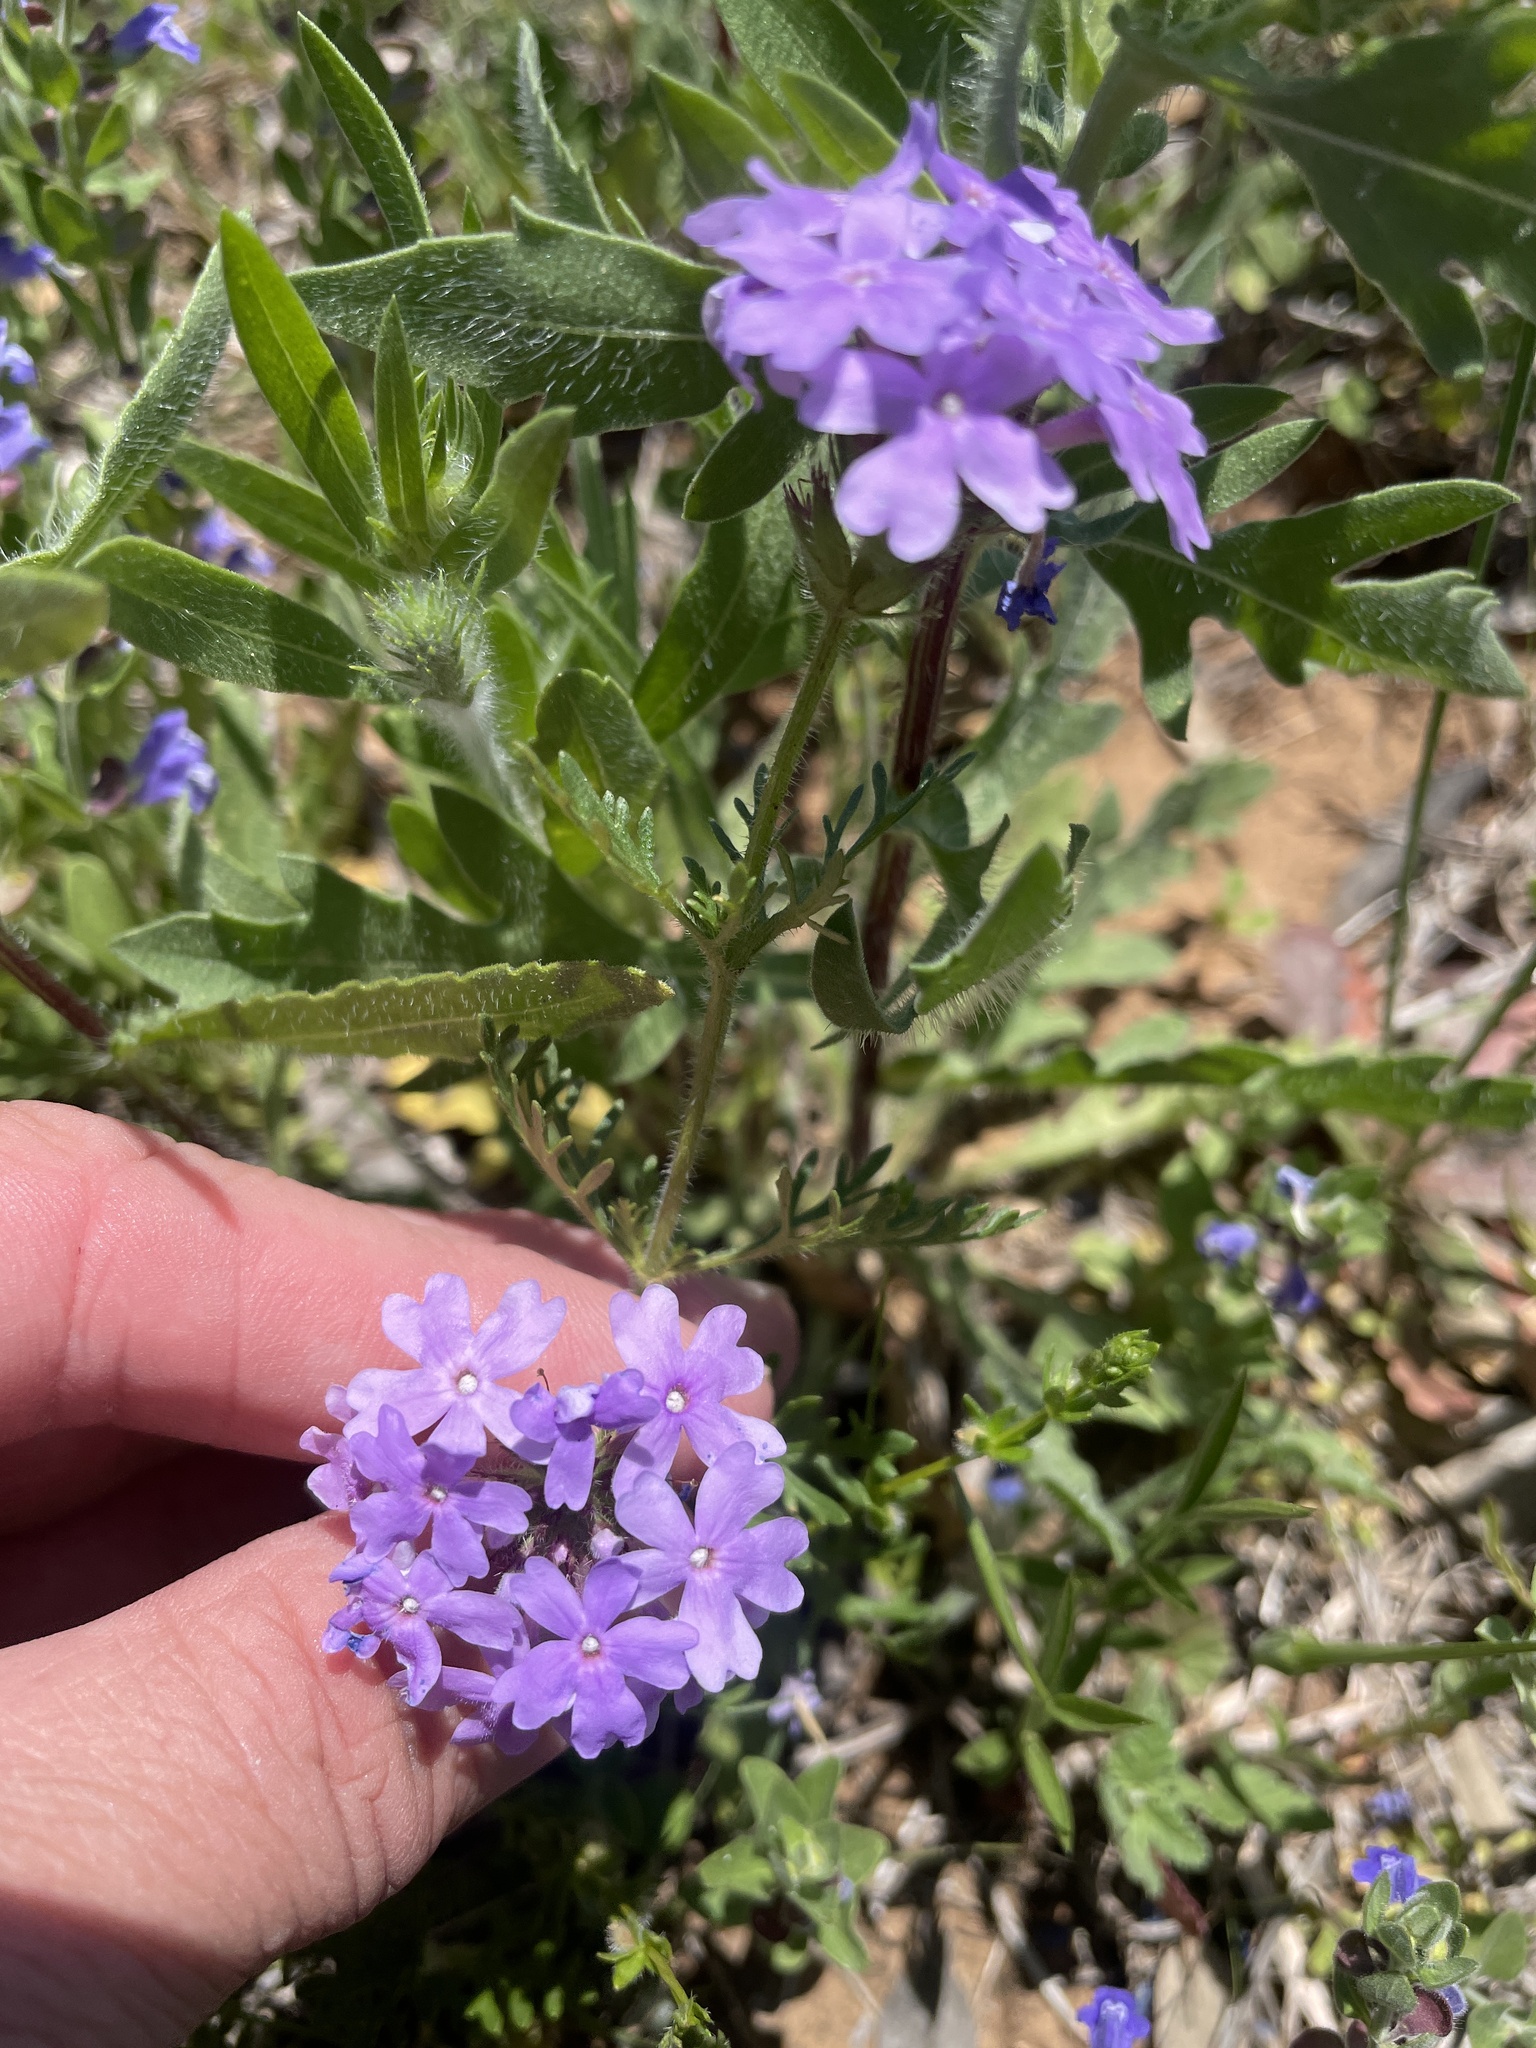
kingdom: Plantae
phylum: Tracheophyta
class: Magnoliopsida
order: Lamiales
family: Verbenaceae
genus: Verbena
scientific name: Verbena bipinnatifida
